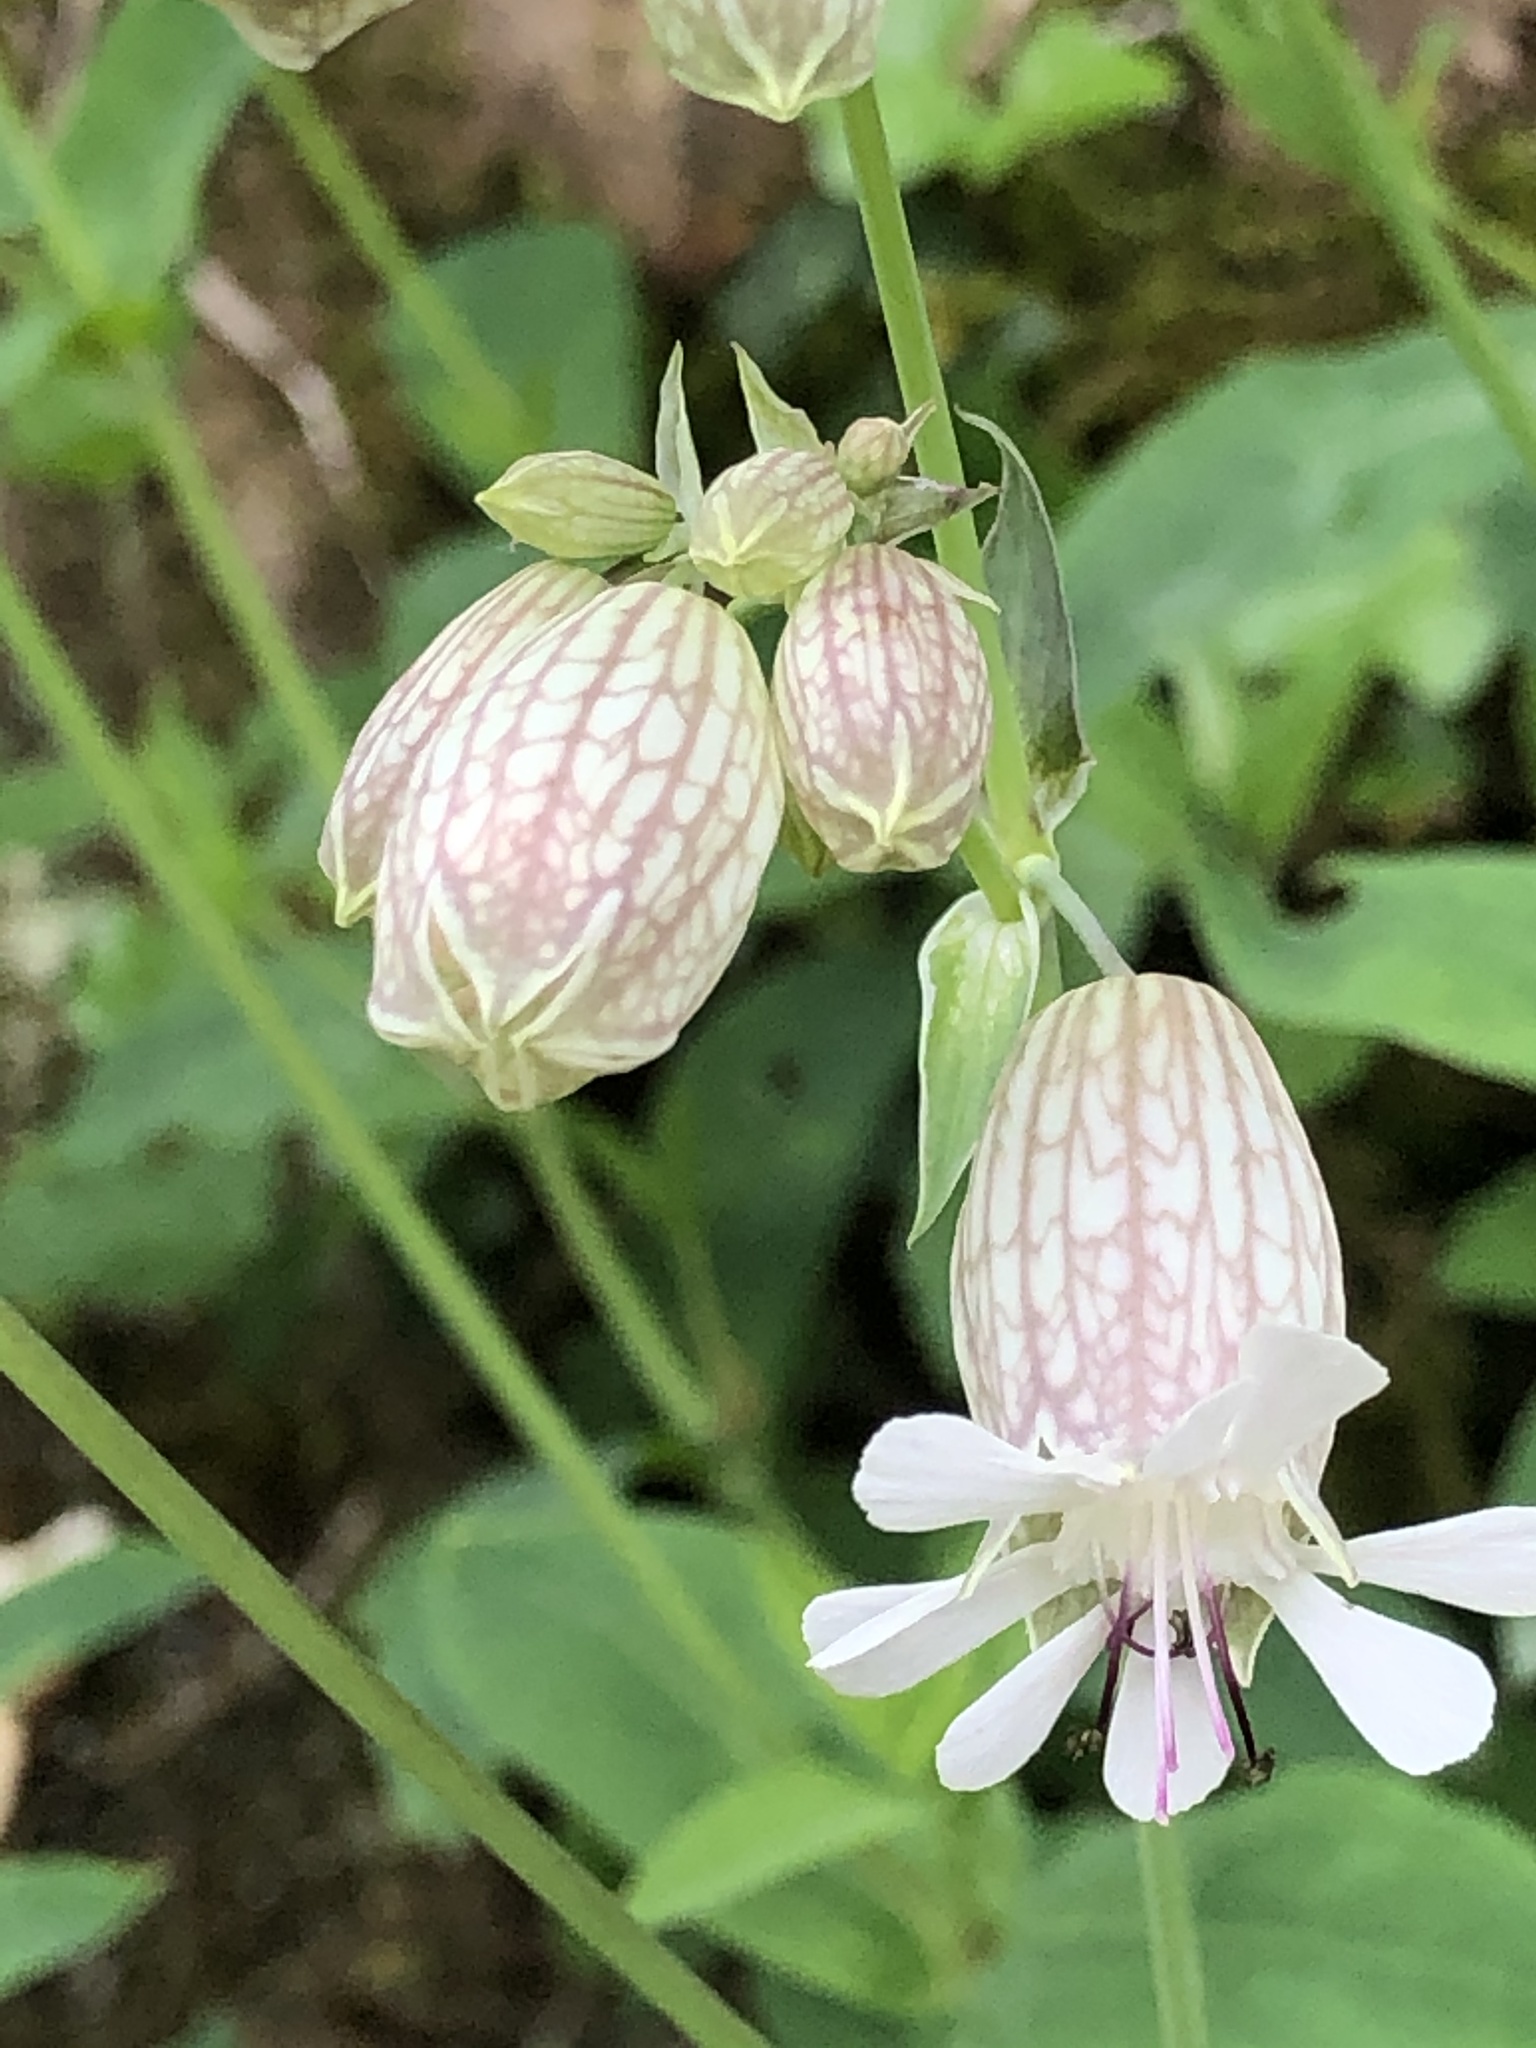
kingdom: Plantae
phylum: Tracheophyta
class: Magnoliopsida
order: Caryophyllales
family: Caryophyllaceae
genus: Silene
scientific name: Silene vulgaris
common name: Bladder campion
